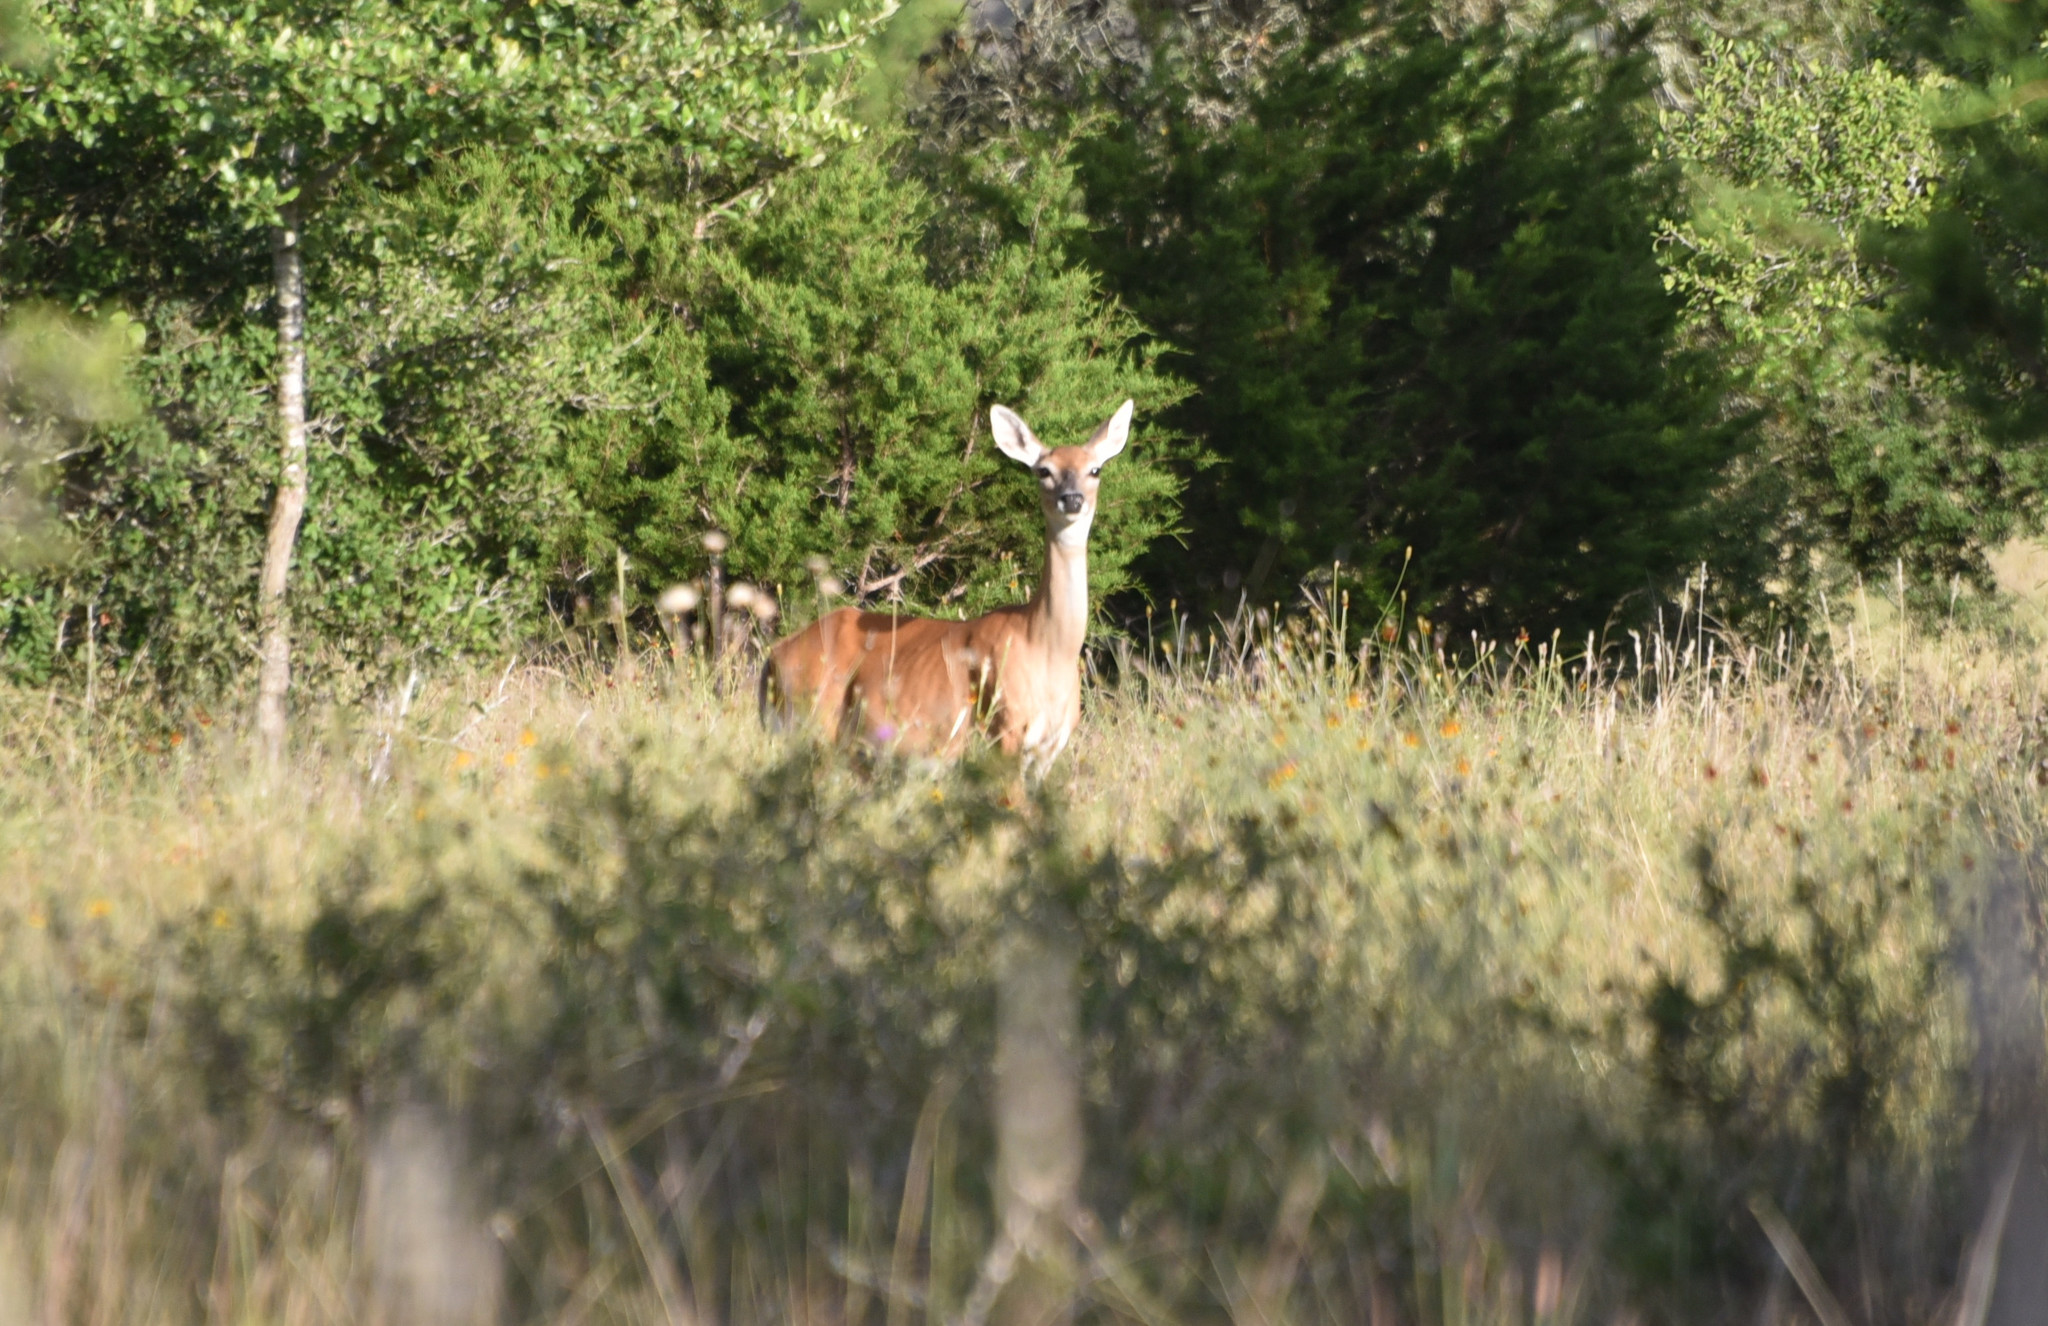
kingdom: Animalia
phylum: Chordata
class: Mammalia
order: Artiodactyla
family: Cervidae
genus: Odocoileus
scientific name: Odocoileus virginianus
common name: White-tailed deer
